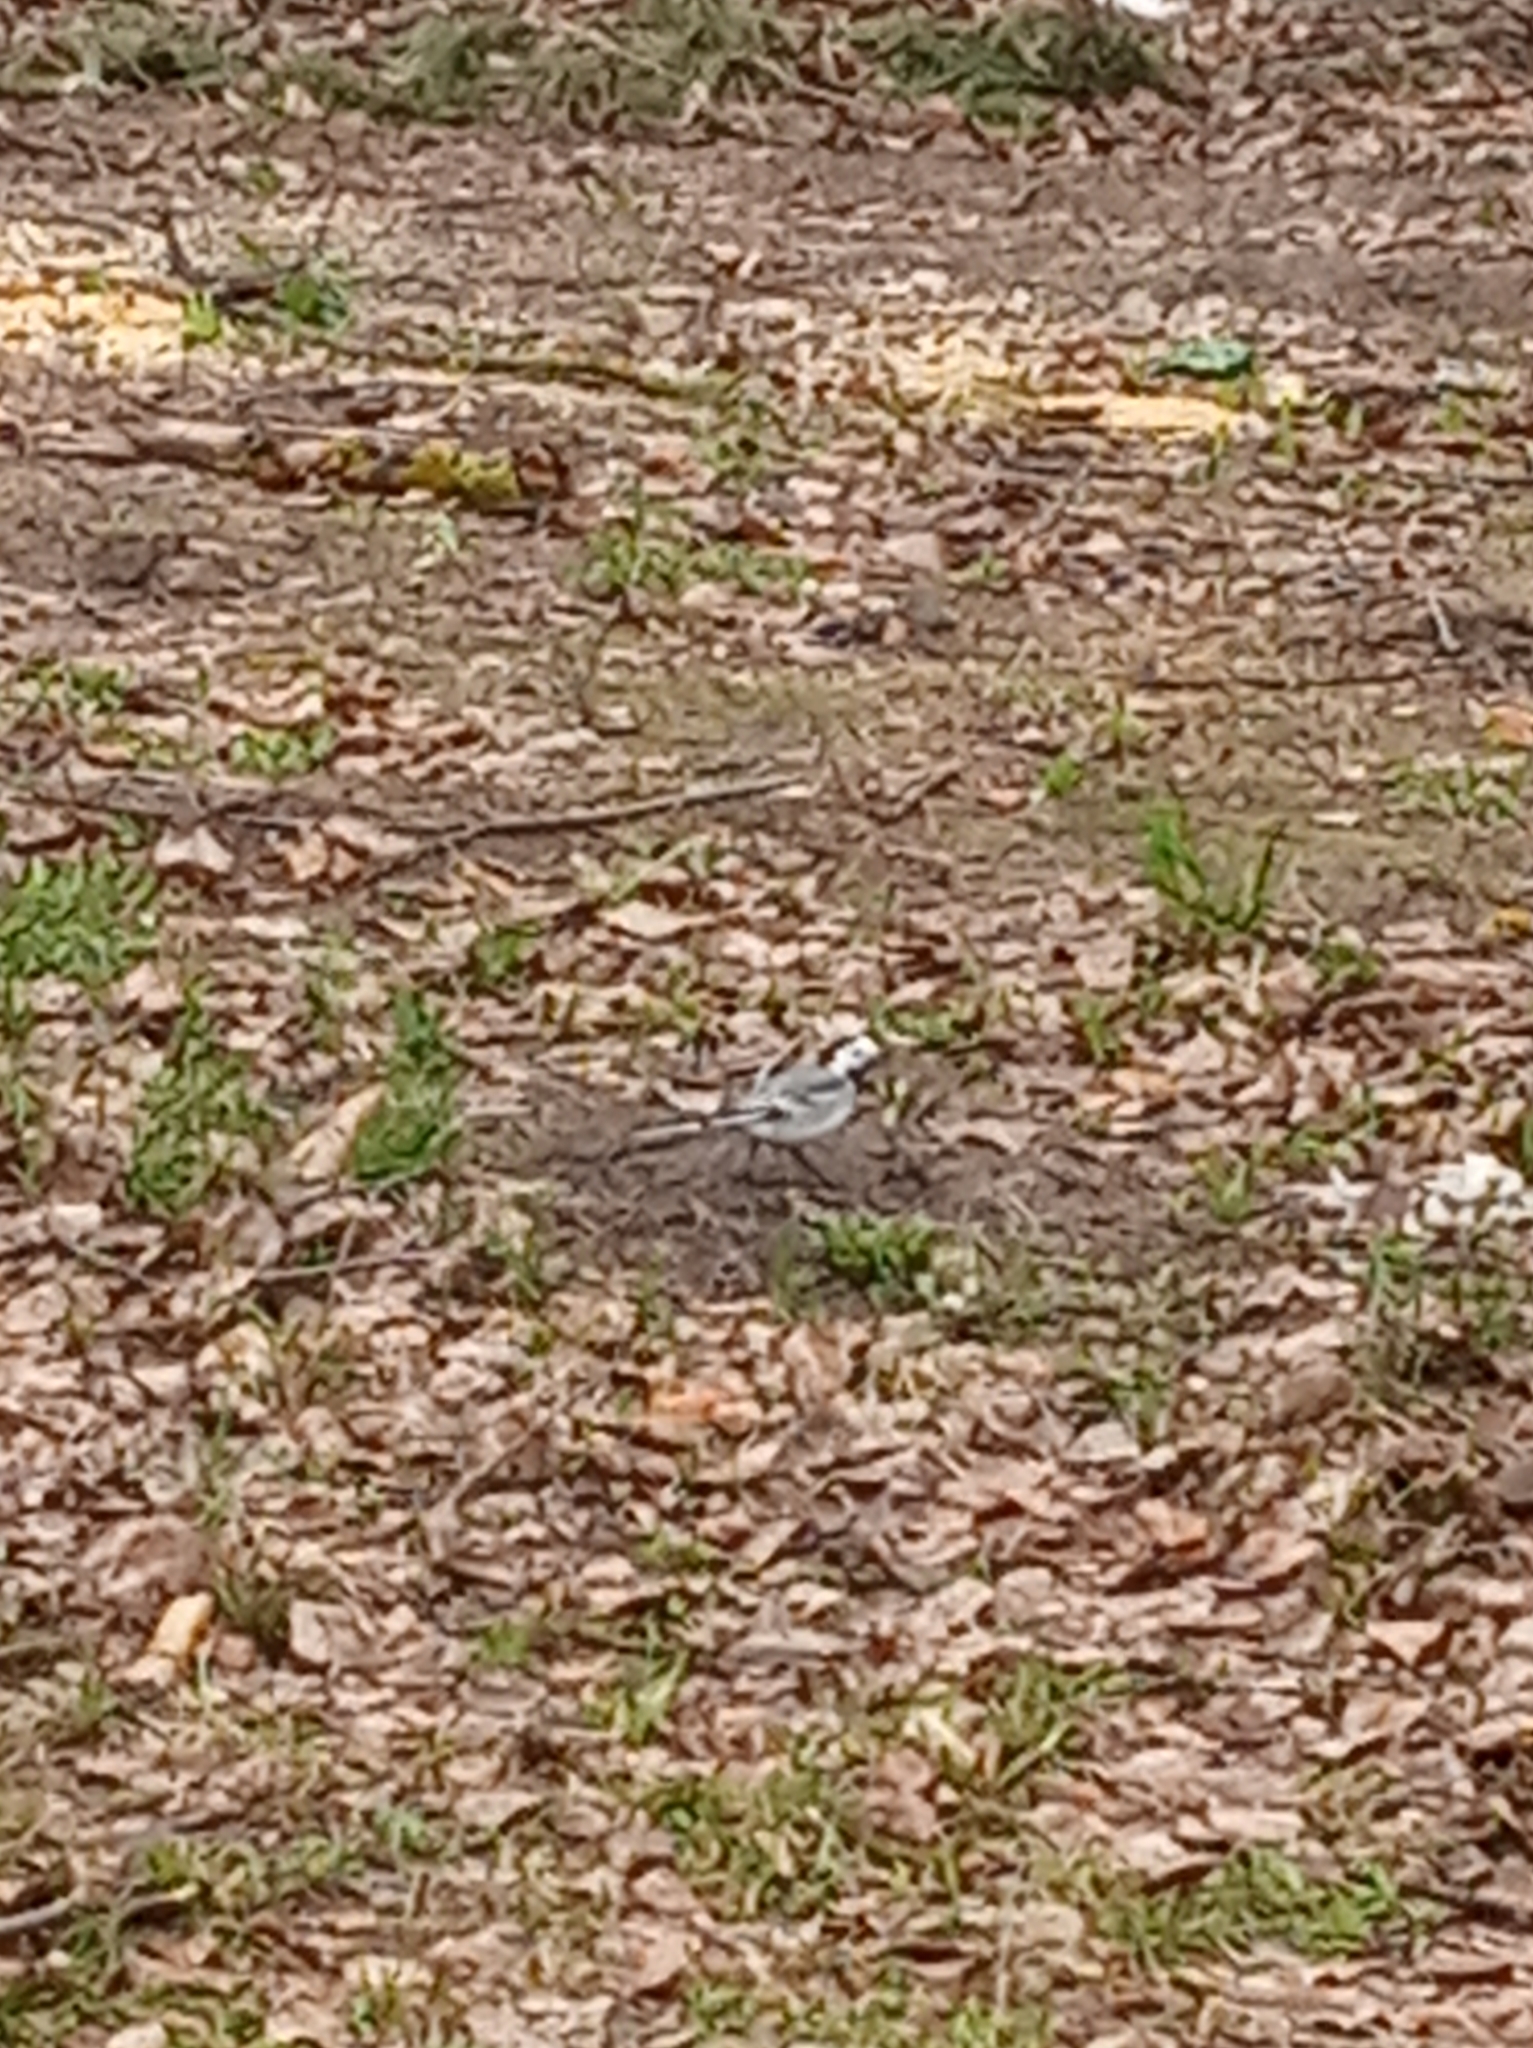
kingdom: Animalia
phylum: Chordata
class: Aves
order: Passeriformes
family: Motacillidae
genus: Motacilla
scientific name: Motacilla alba
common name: White wagtail
